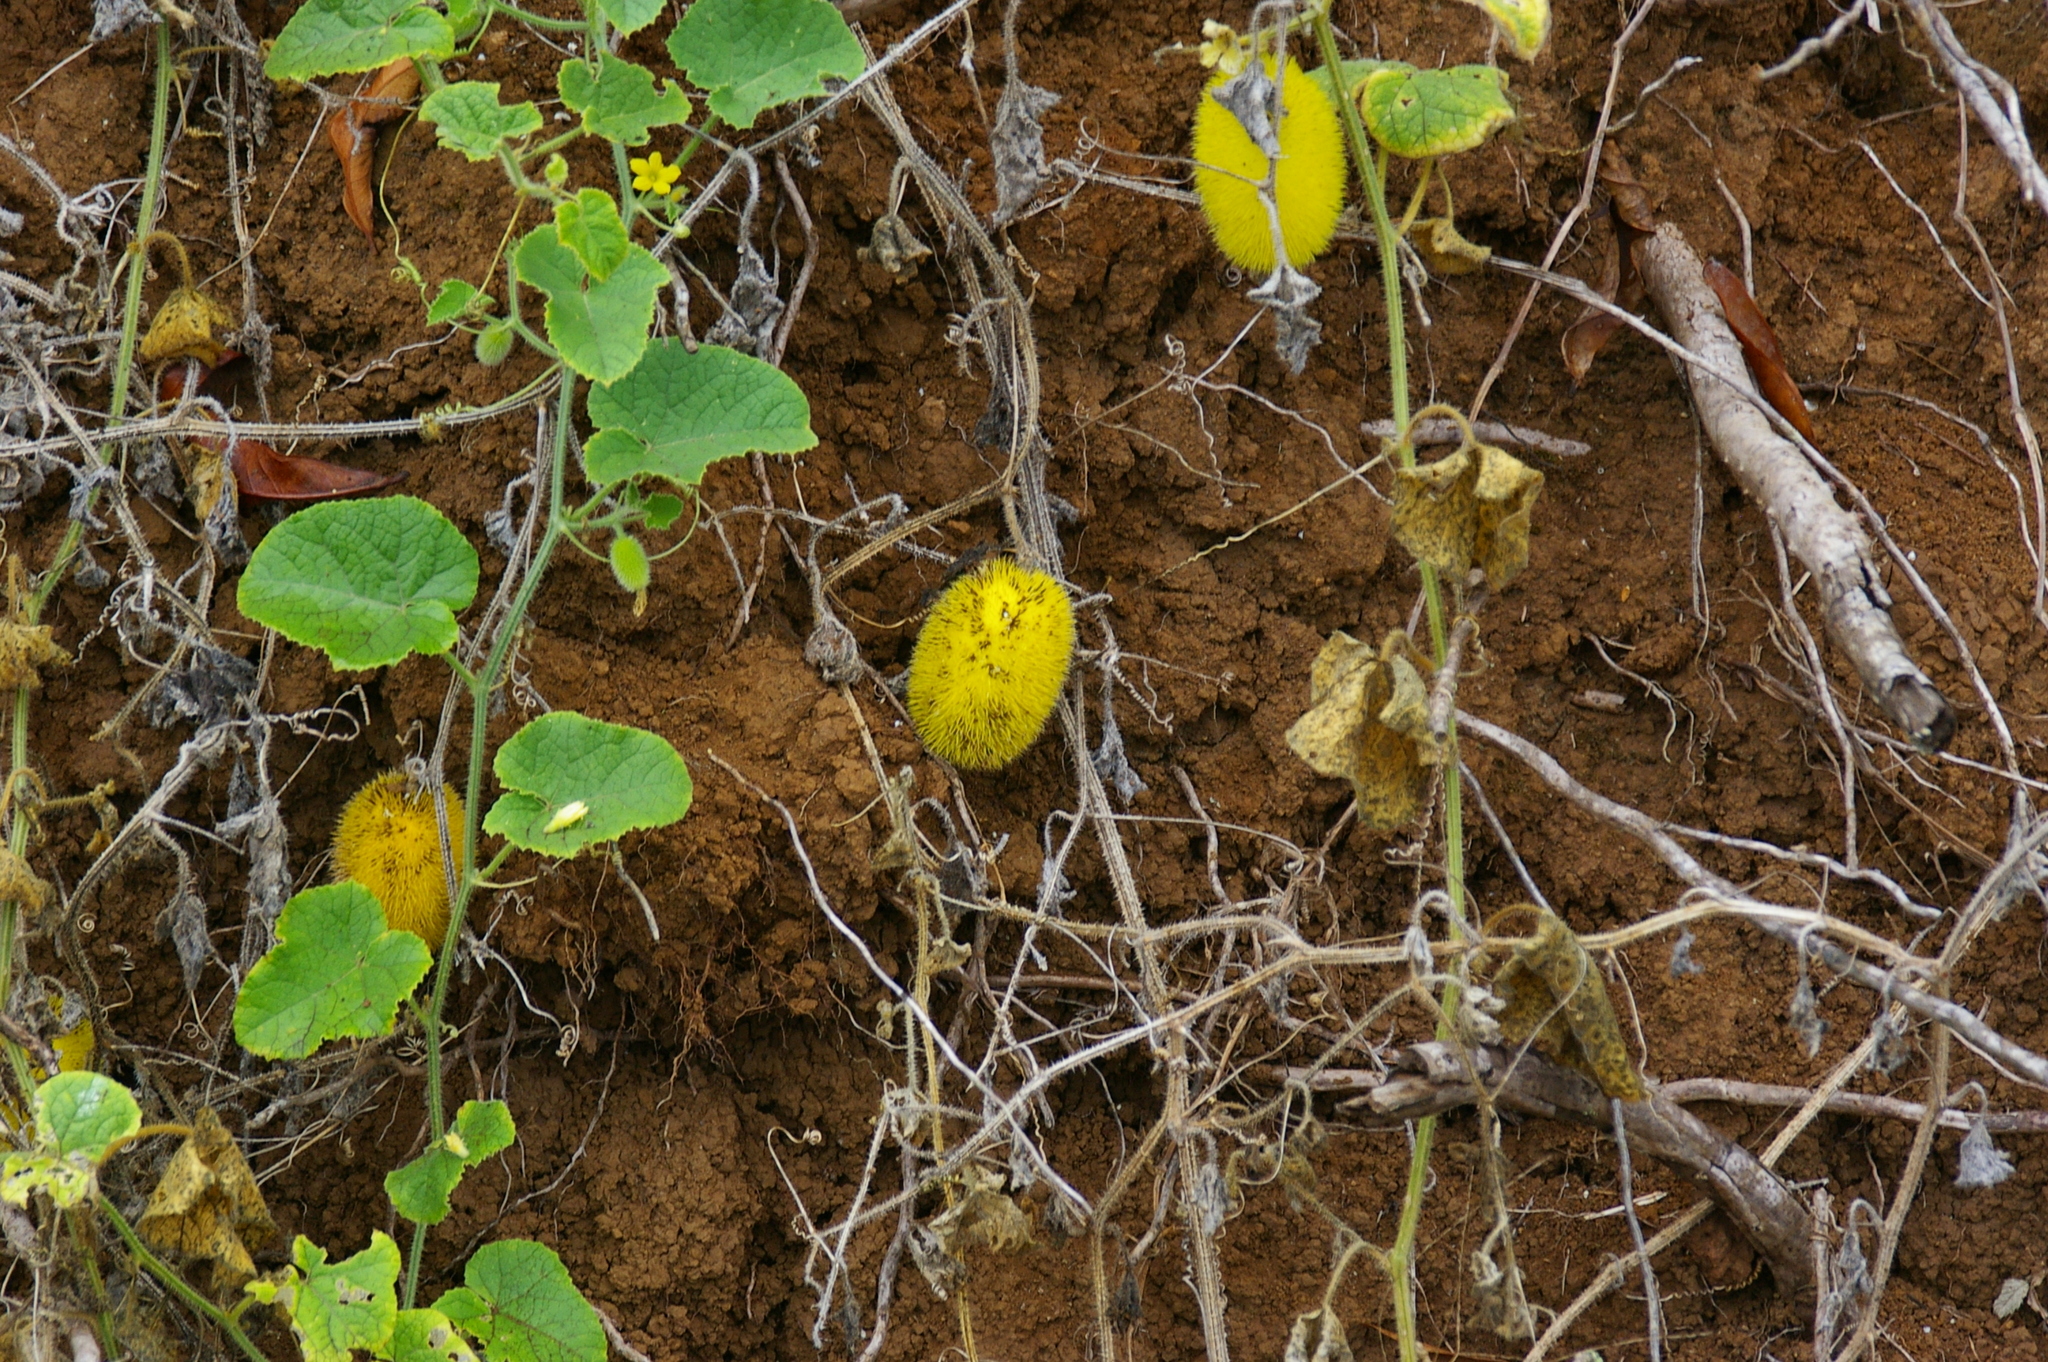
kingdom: Plantae
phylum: Tracheophyta
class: Magnoliopsida
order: Cucurbitales
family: Cucurbitaceae
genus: Cucumis
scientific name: Cucumis dipsaceus
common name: Hedgehog gourd
